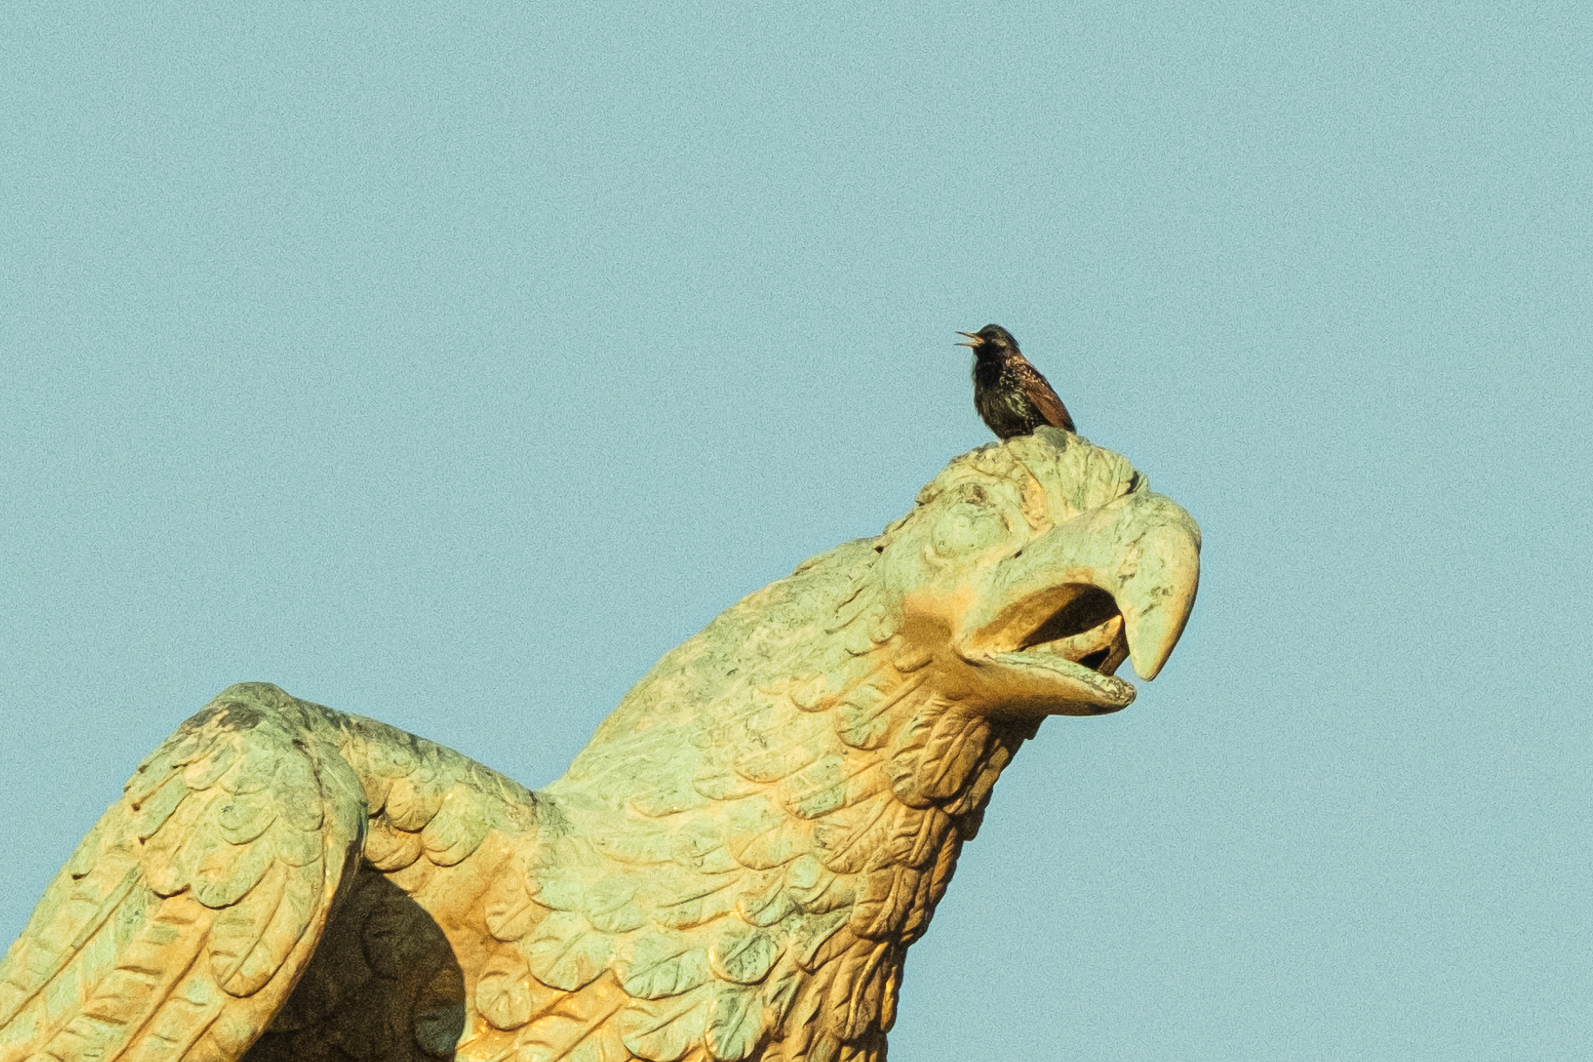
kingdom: Animalia
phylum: Chordata
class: Aves
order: Passeriformes
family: Sturnidae
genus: Sturnus
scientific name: Sturnus vulgaris
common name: Common starling
